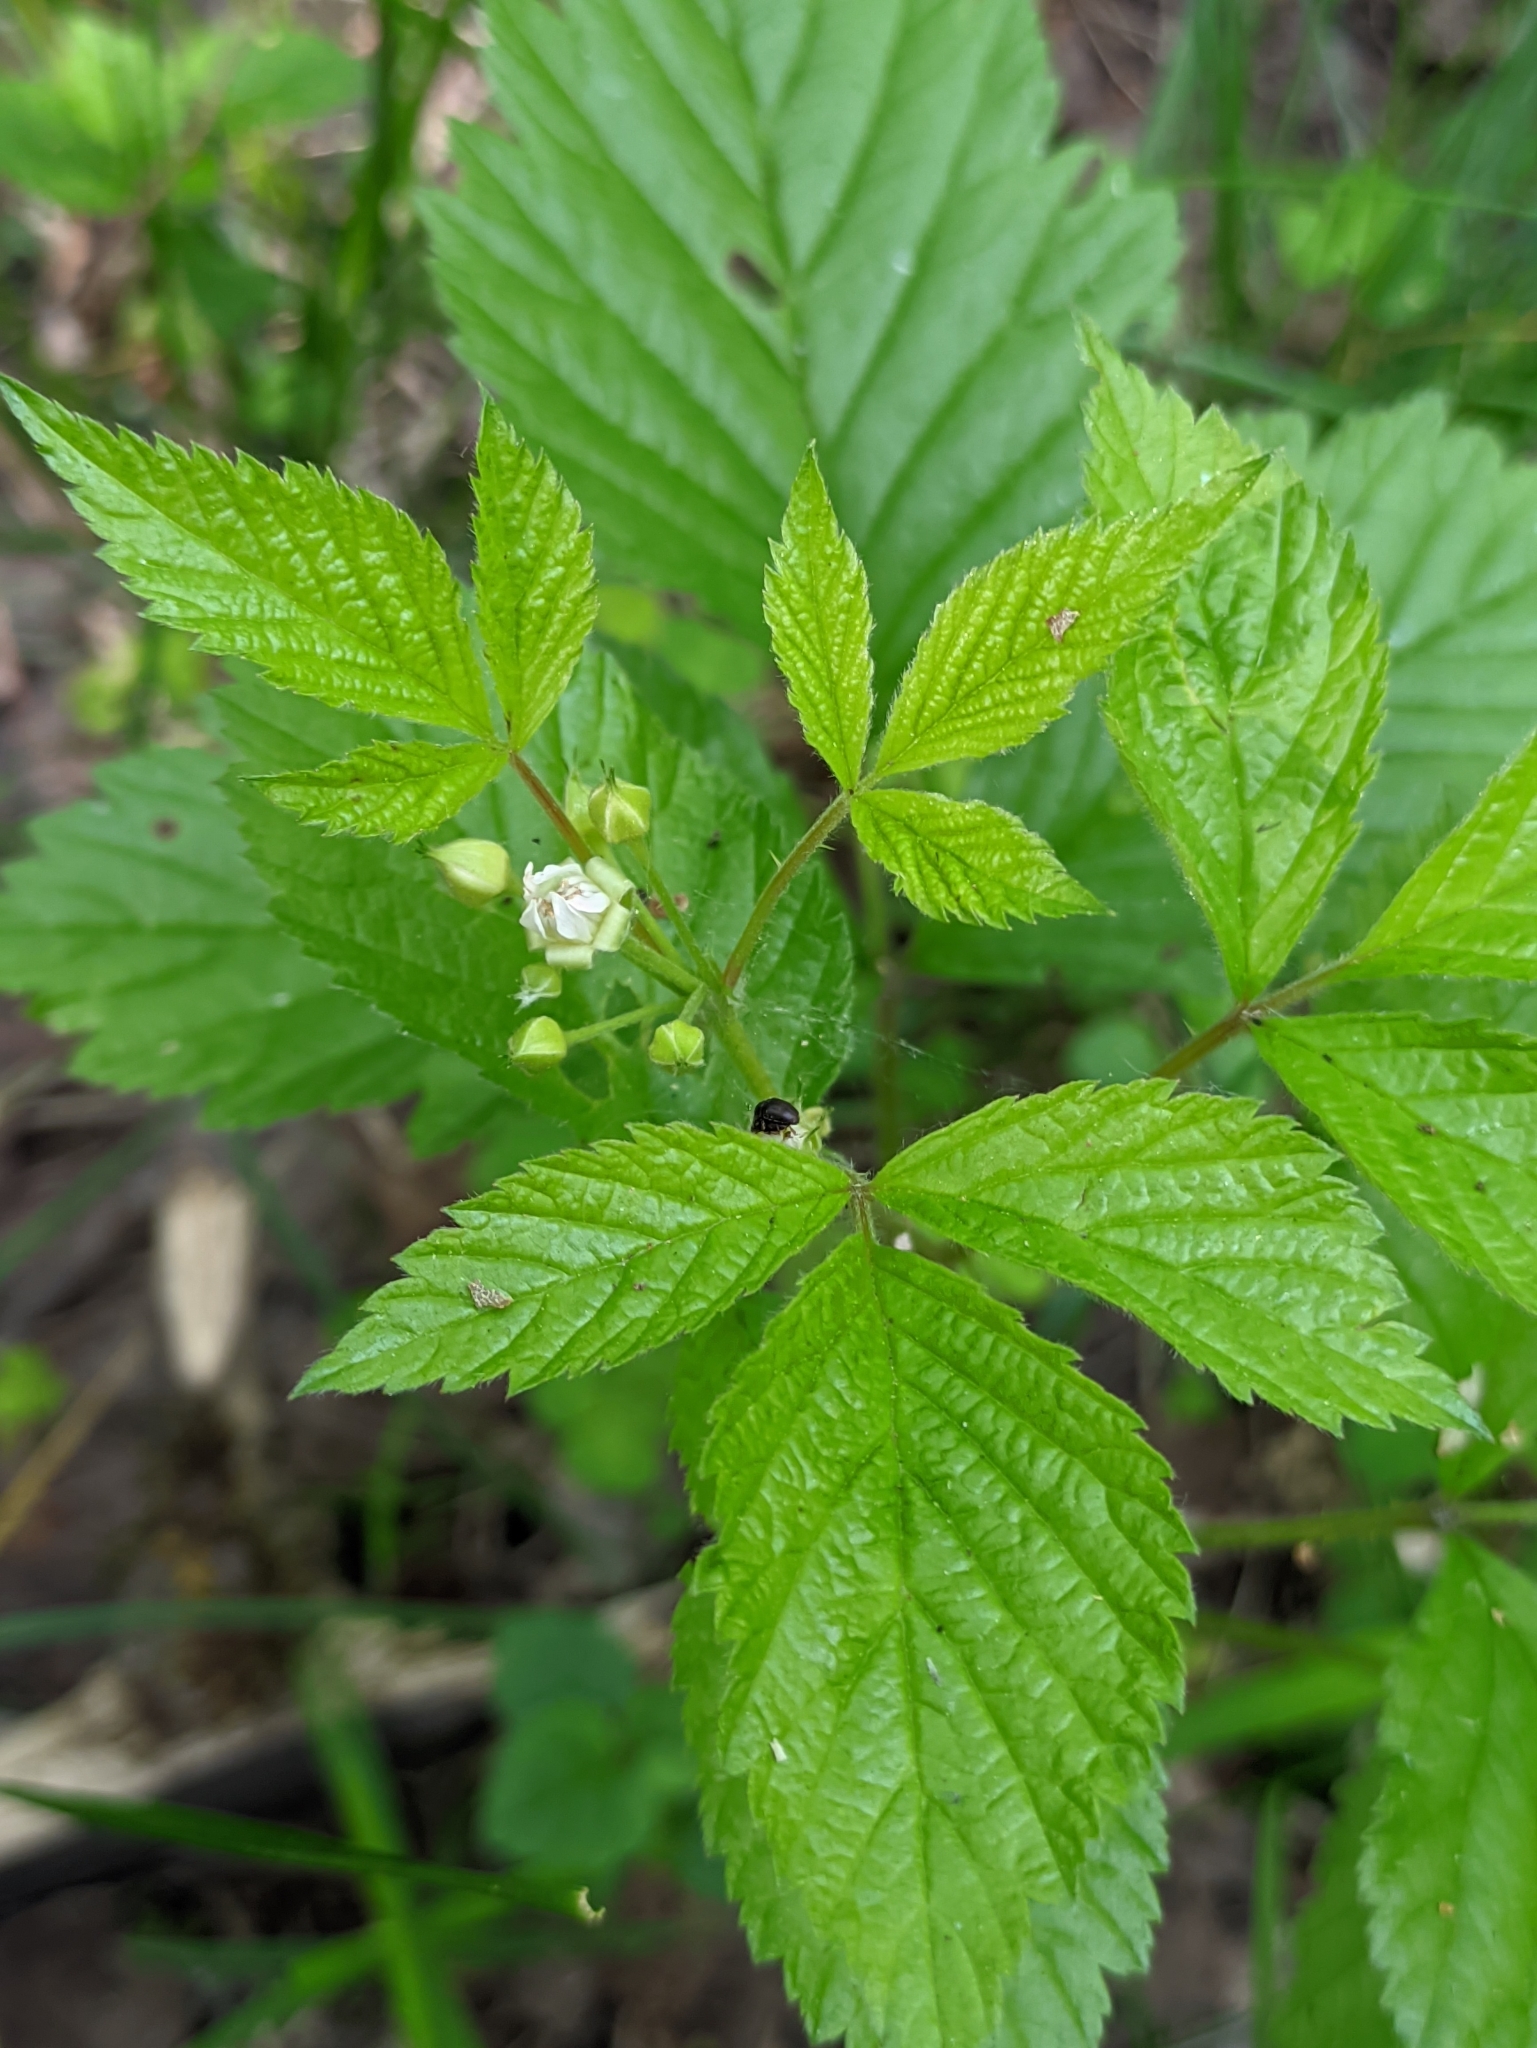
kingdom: Plantae
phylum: Tracheophyta
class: Magnoliopsida
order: Rosales
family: Rosaceae
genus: Rubus
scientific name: Rubus saxatilis
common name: Stone bramble
